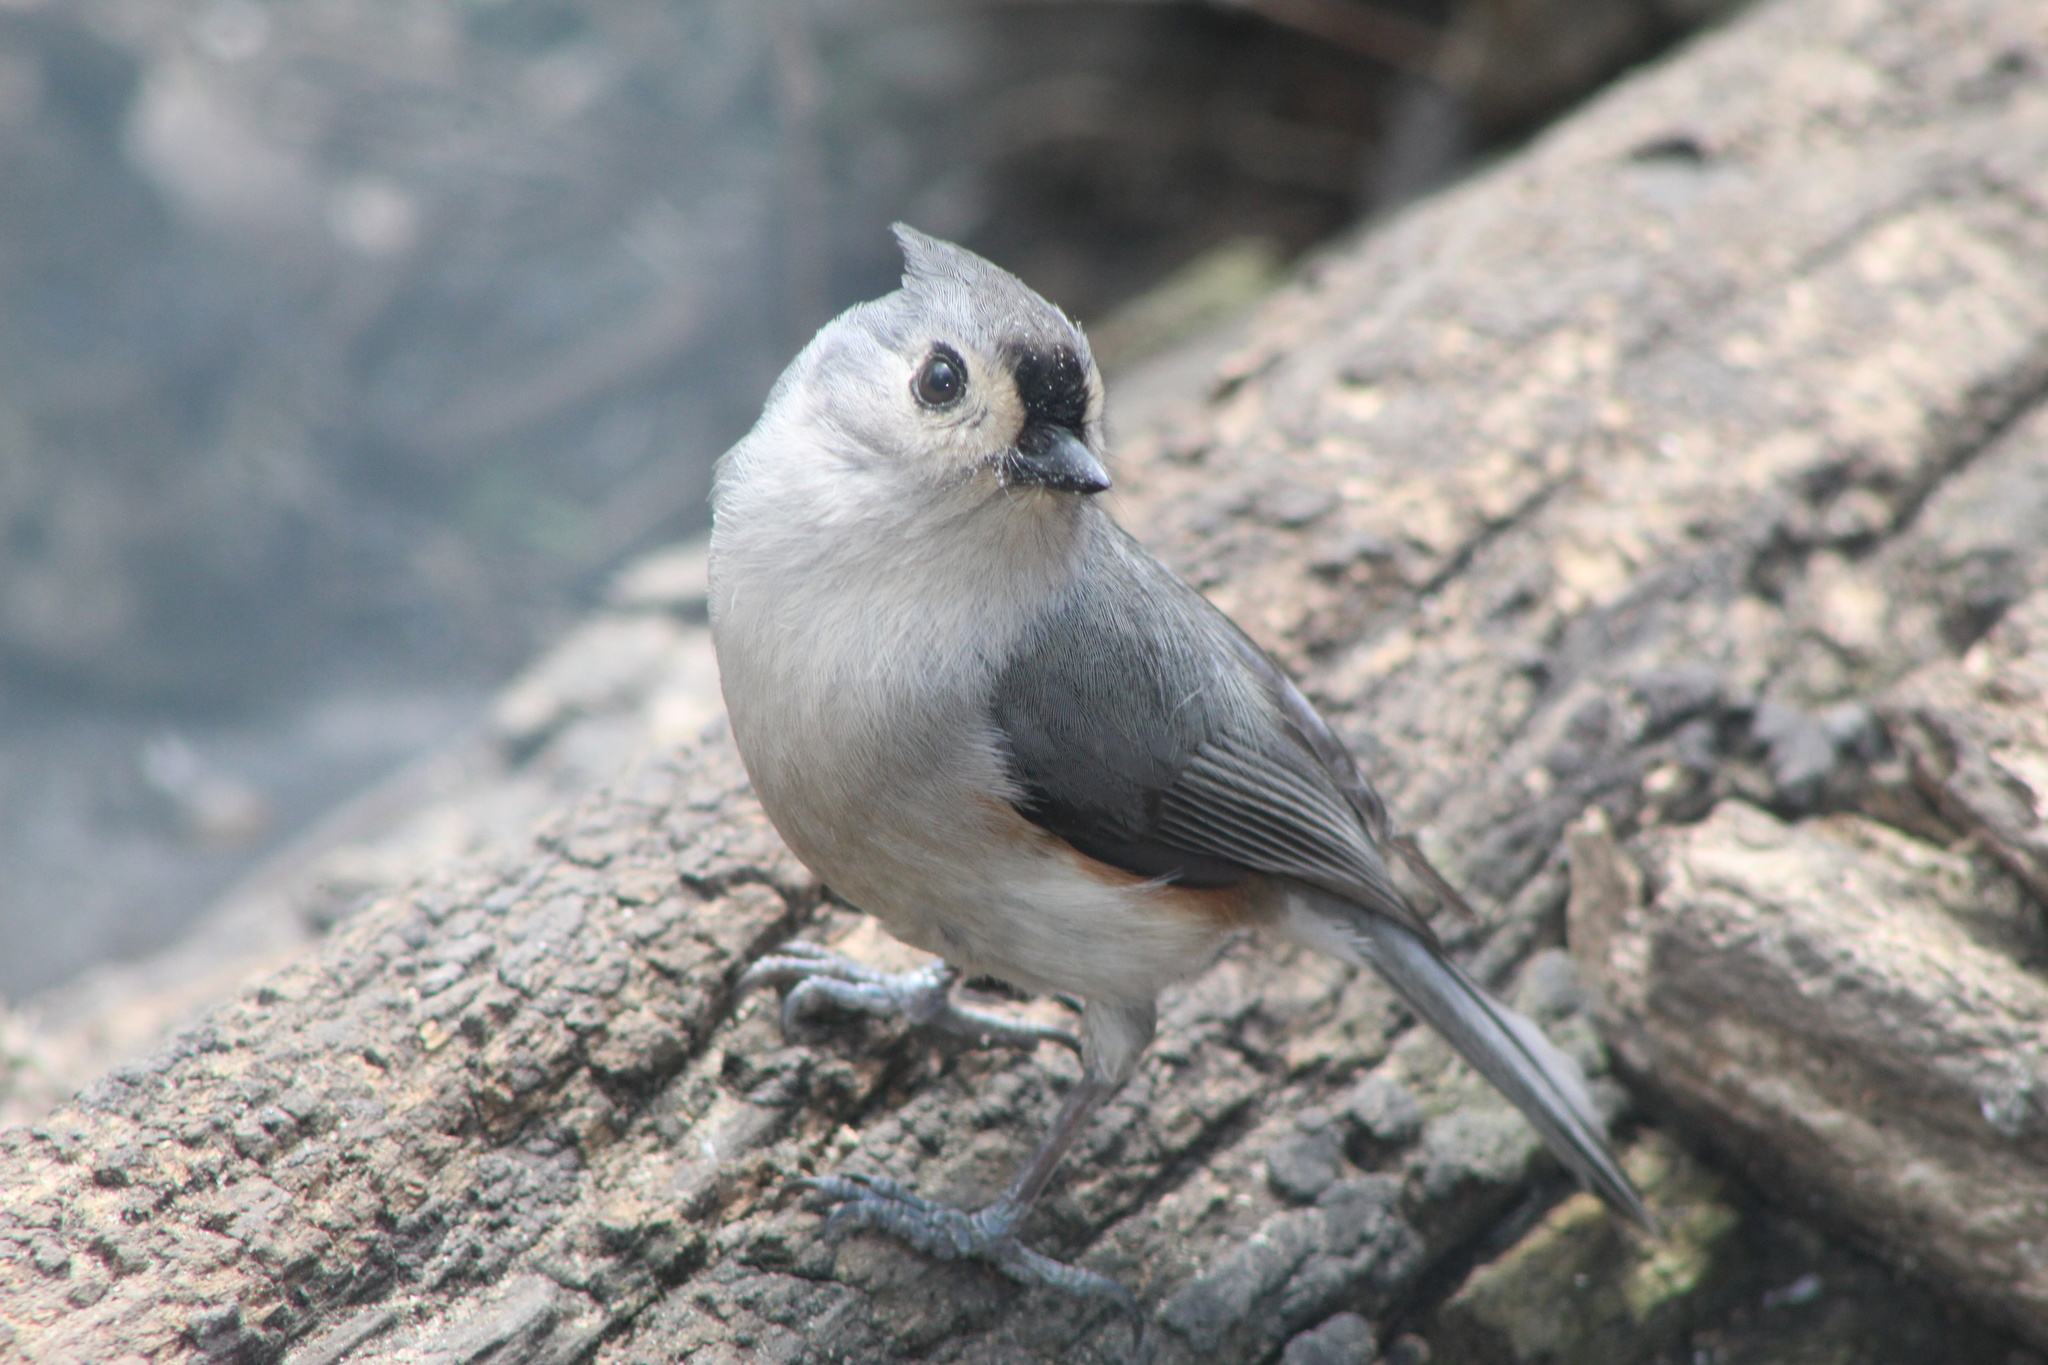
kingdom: Animalia
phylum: Chordata
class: Aves
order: Passeriformes
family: Paridae
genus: Baeolophus
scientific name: Baeolophus bicolor
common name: Tufted titmouse
